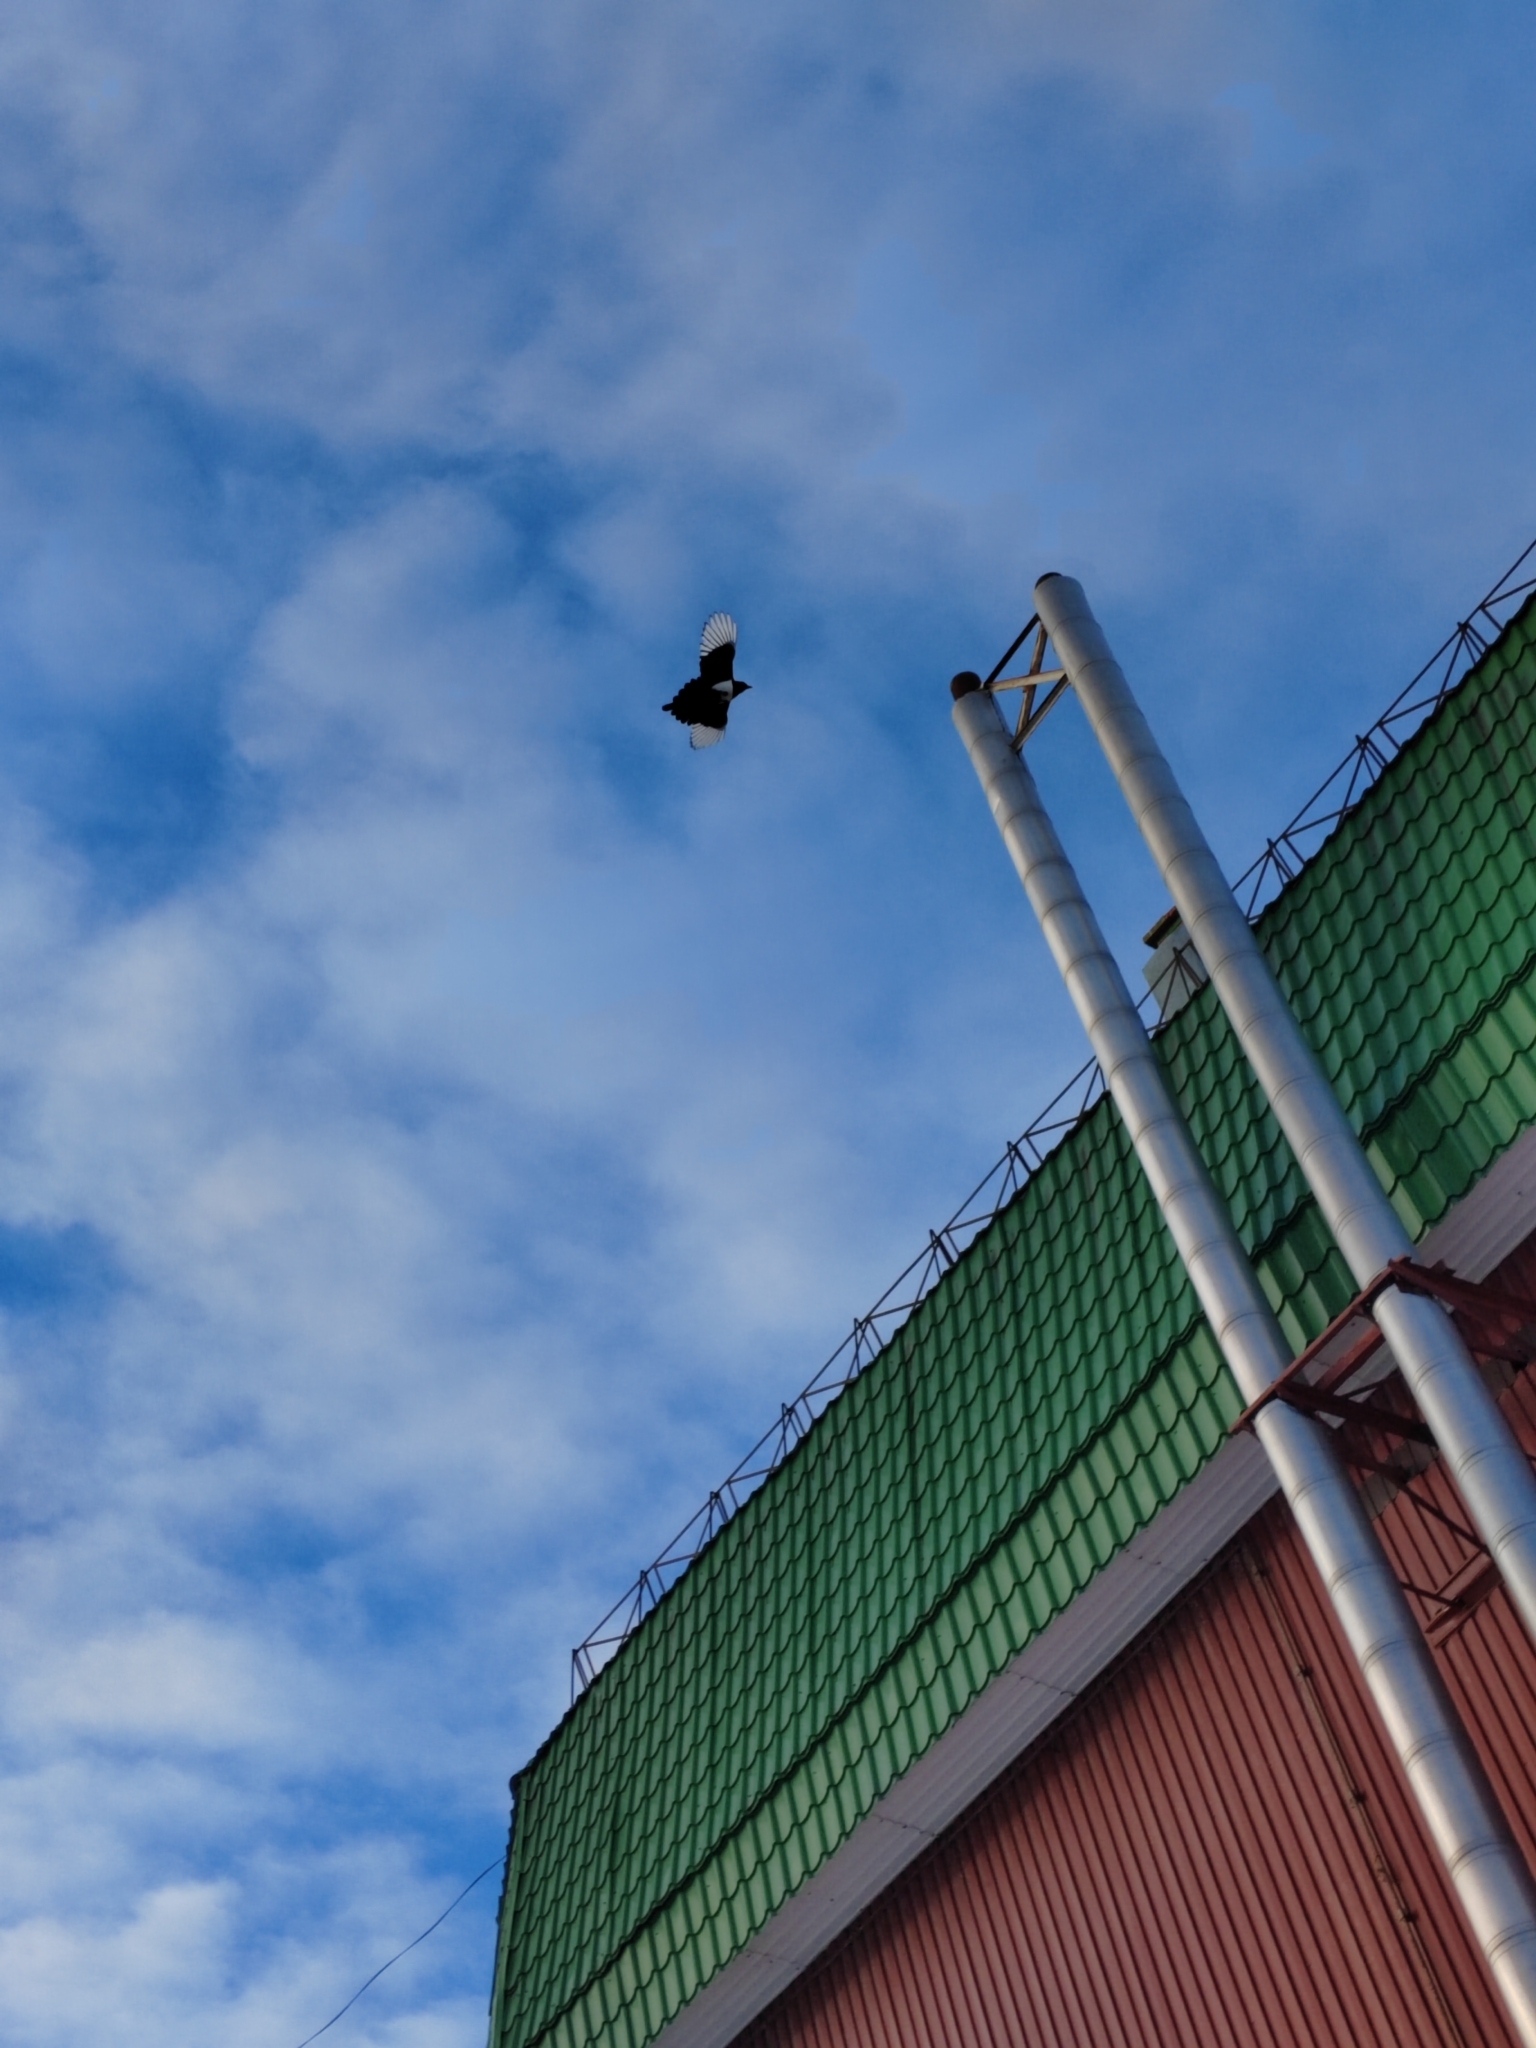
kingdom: Animalia
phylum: Chordata
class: Aves
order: Passeriformes
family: Corvidae
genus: Pica
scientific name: Pica pica
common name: Eurasian magpie
